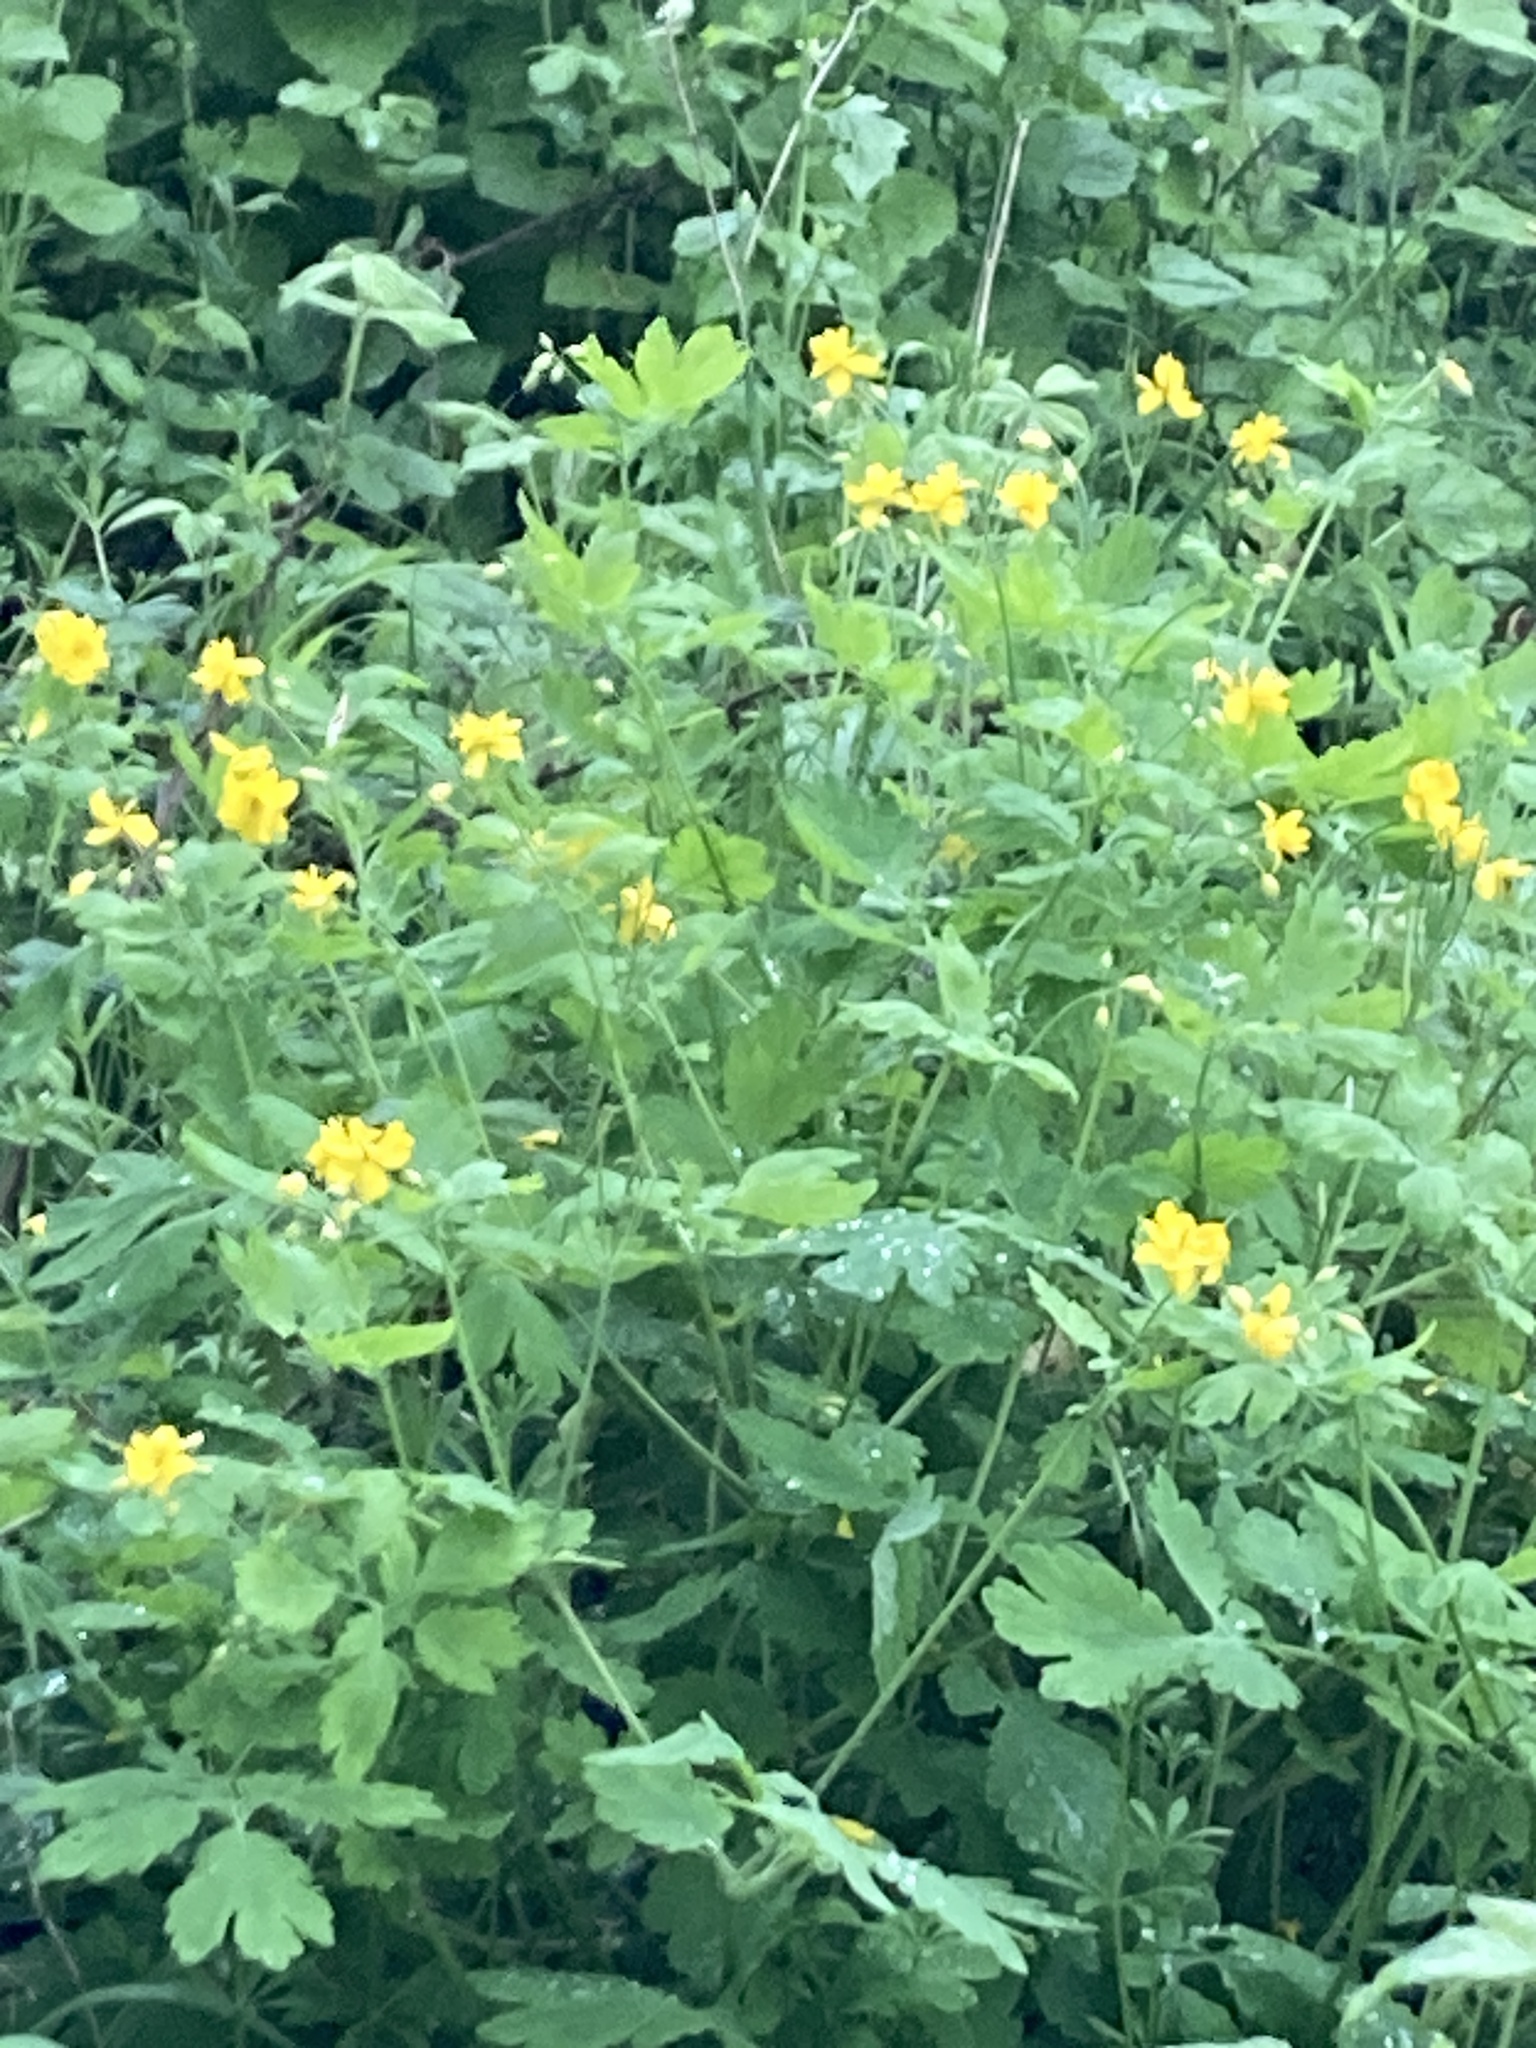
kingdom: Plantae
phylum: Tracheophyta
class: Magnoliopsida
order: Ranunculales
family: Papaveraceae
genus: Chelidonium
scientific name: Chelidonium majus
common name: Greater celandine
